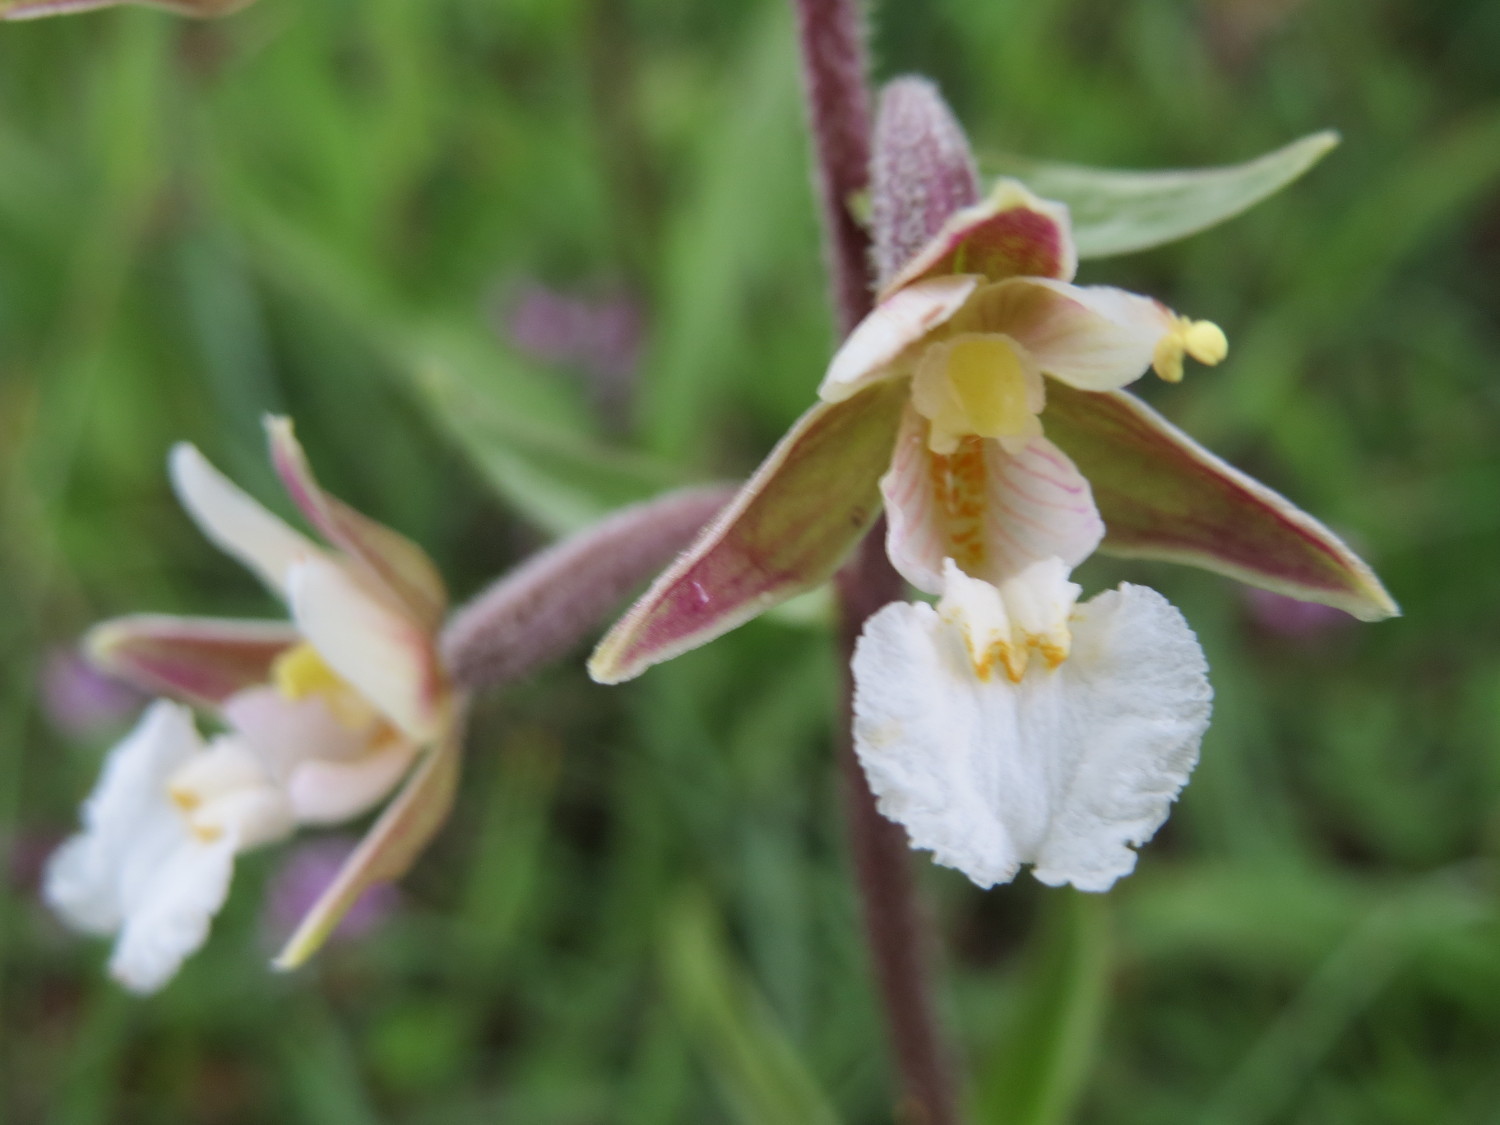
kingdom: Plantae
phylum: Tracheophyta
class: Liliopsida
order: Asparagales
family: Orchidaceae
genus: Epipactis
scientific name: Epipactis palustris
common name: Marsh helleborine
